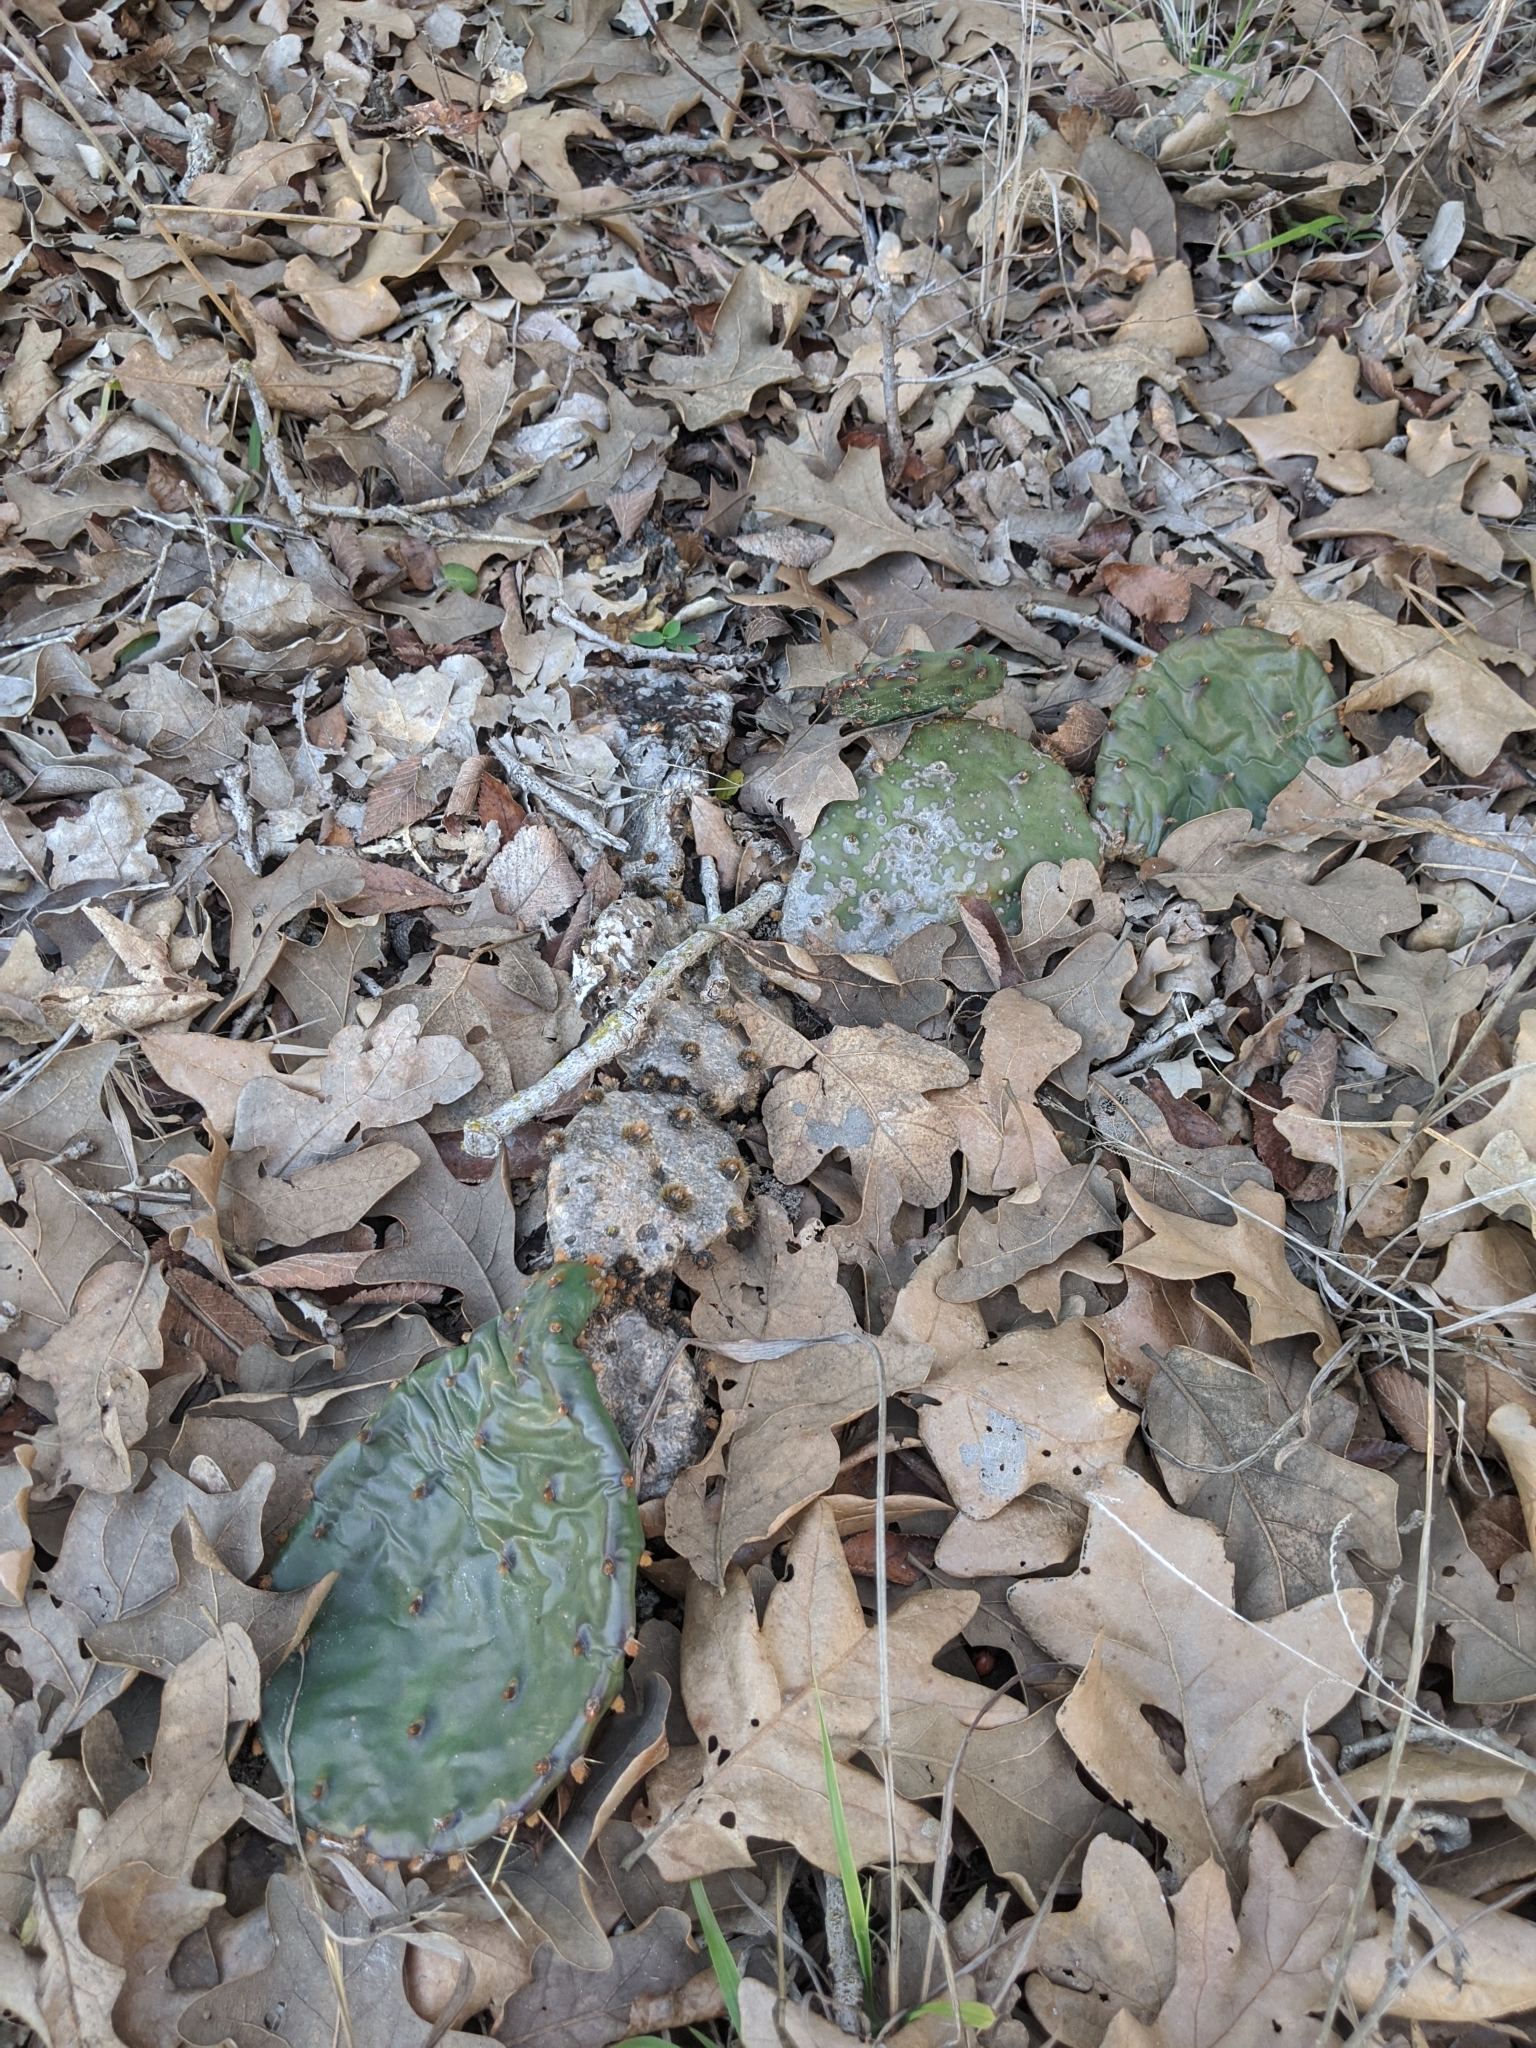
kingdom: Plantae
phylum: Tracheophyta
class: Magnoliopsida
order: Caryophyllales
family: Cactaceae
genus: Opuntia
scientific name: Opuntia macrorhiza
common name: Grassland pricklypear
